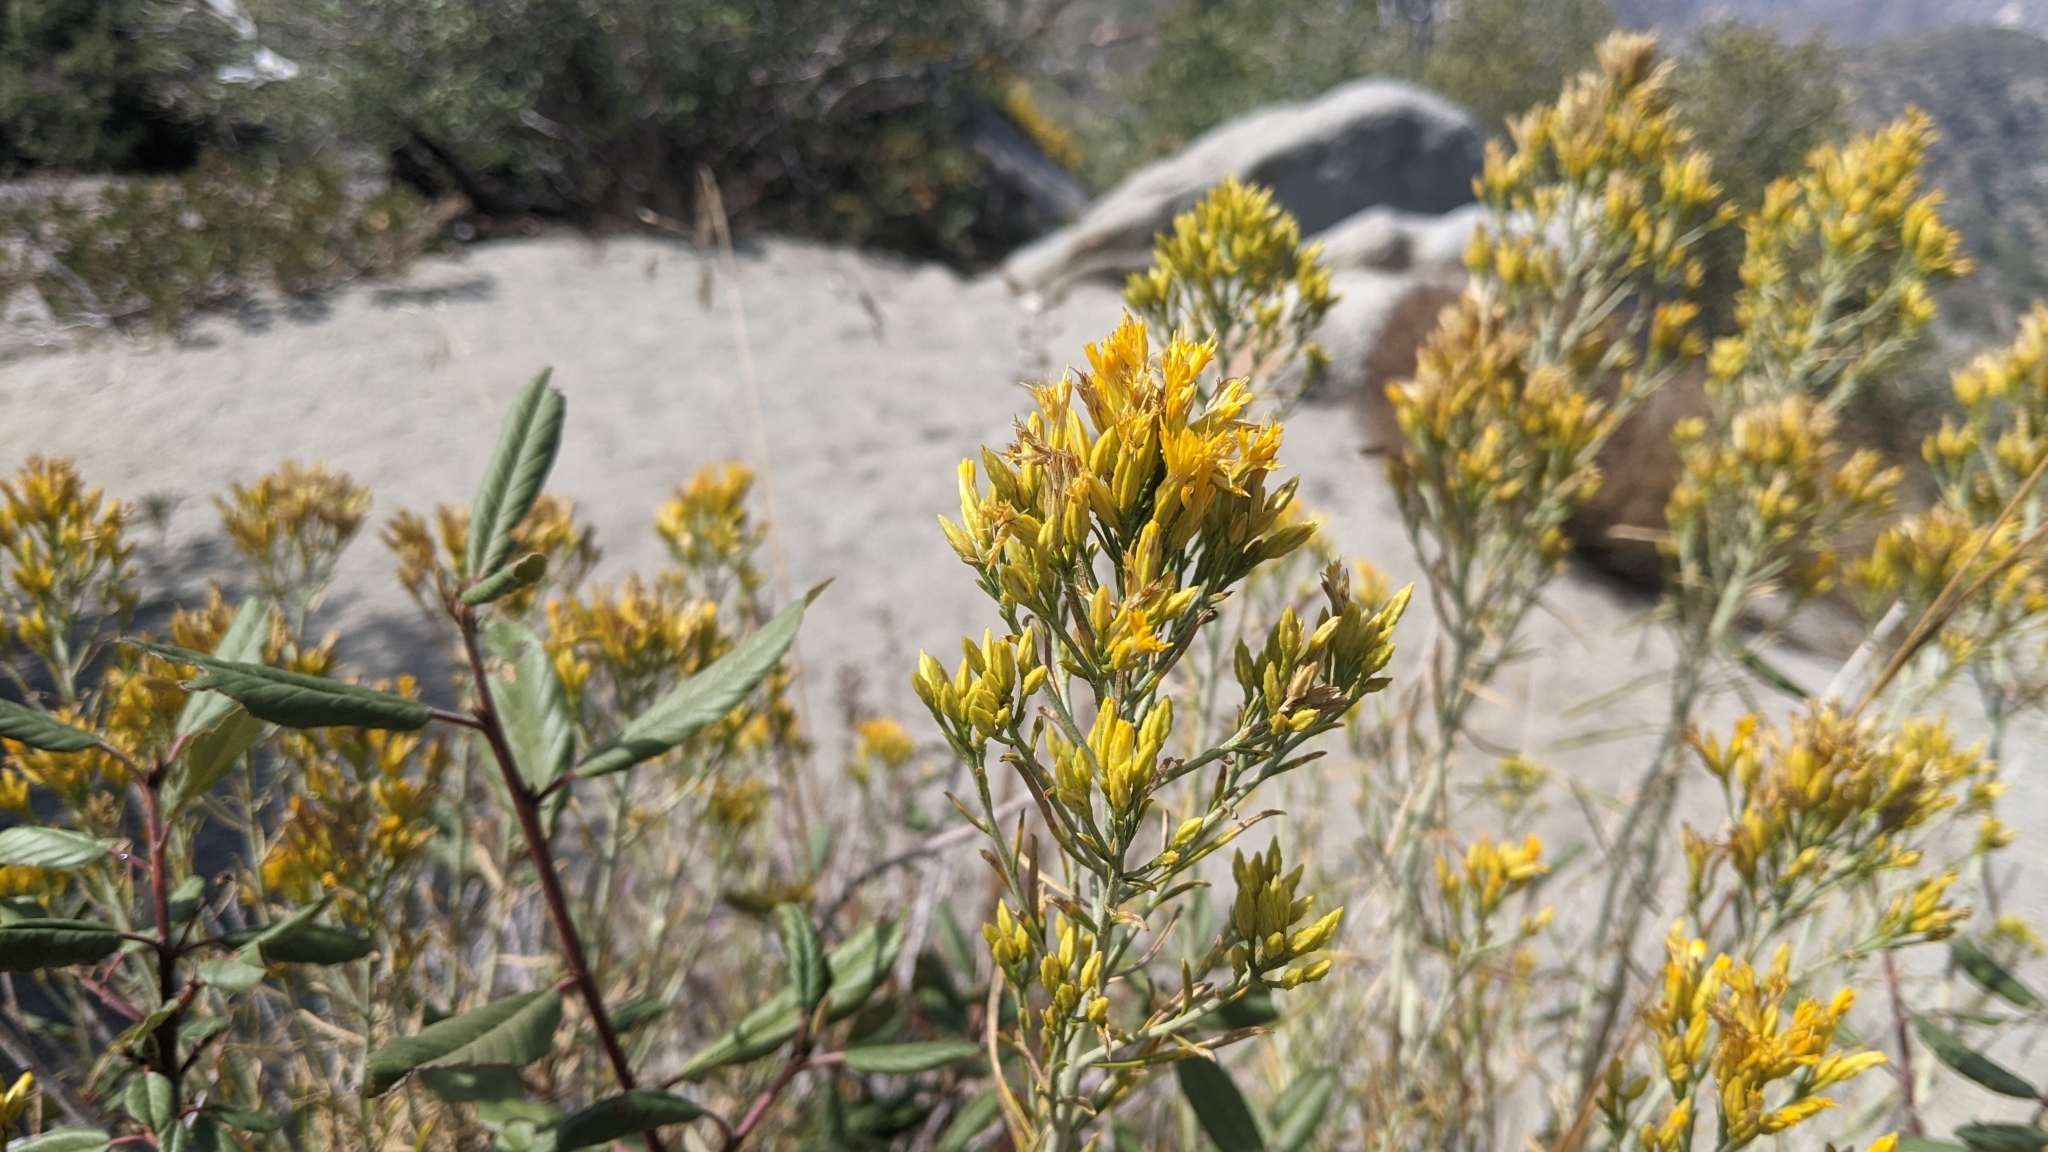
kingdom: Plantae
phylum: Tracheophyta
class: Magnoliopsida
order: Asterales
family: Asteraceae
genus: Ericameria
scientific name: Ericameria nauseosa
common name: Rubber rabbitbrush
